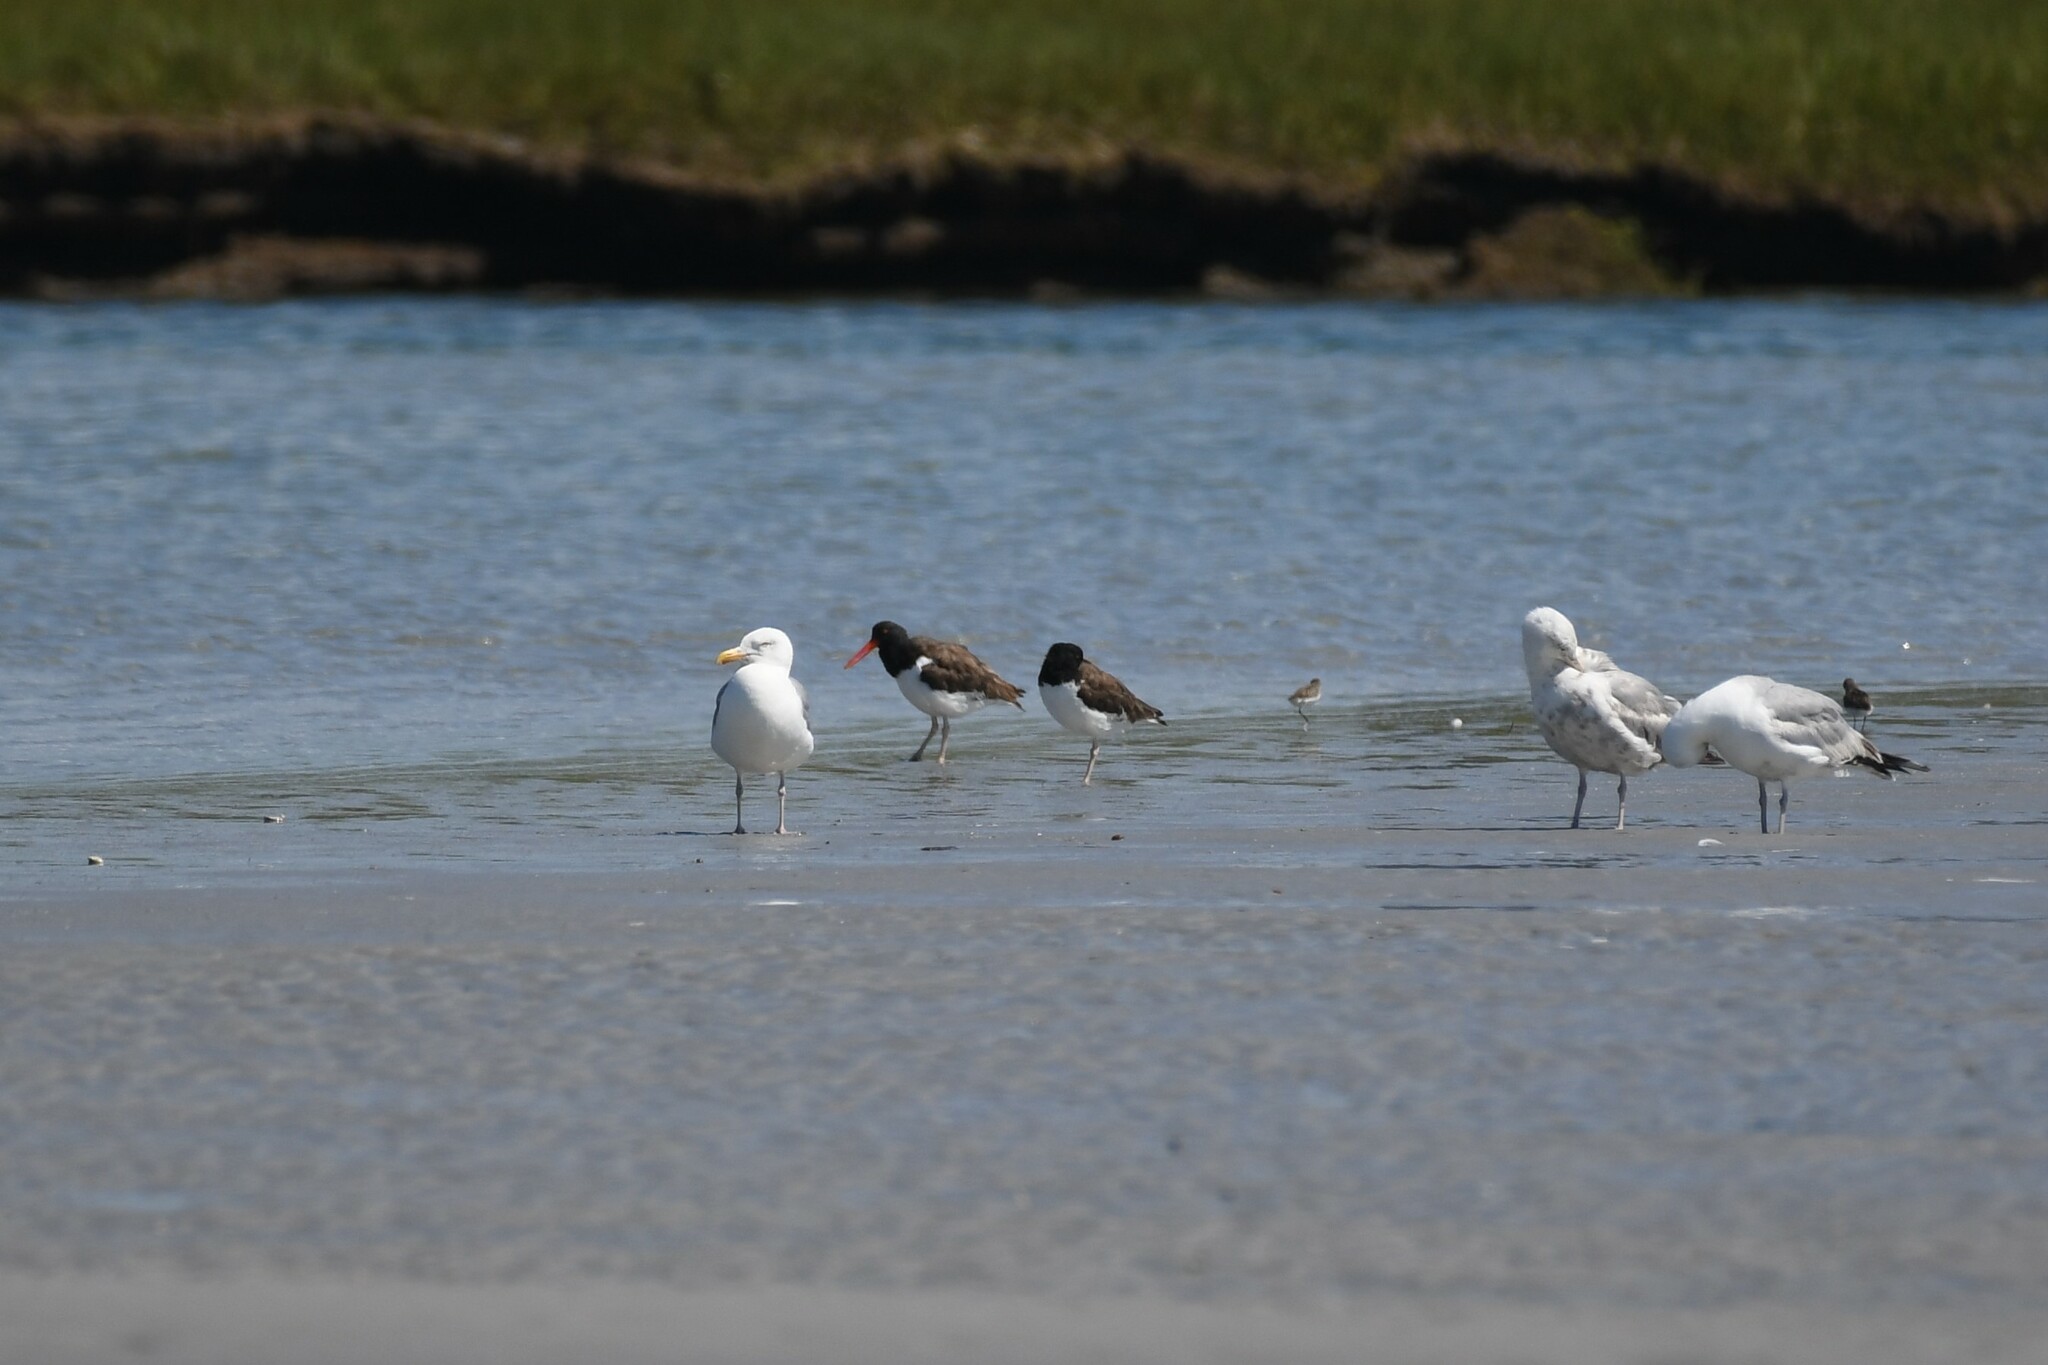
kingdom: Animalia
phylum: Chordata
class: Aves
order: Charadriiformes
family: Haematopodidae
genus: Haematopus
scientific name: Haematopus palliatus
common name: American oystercatcher
